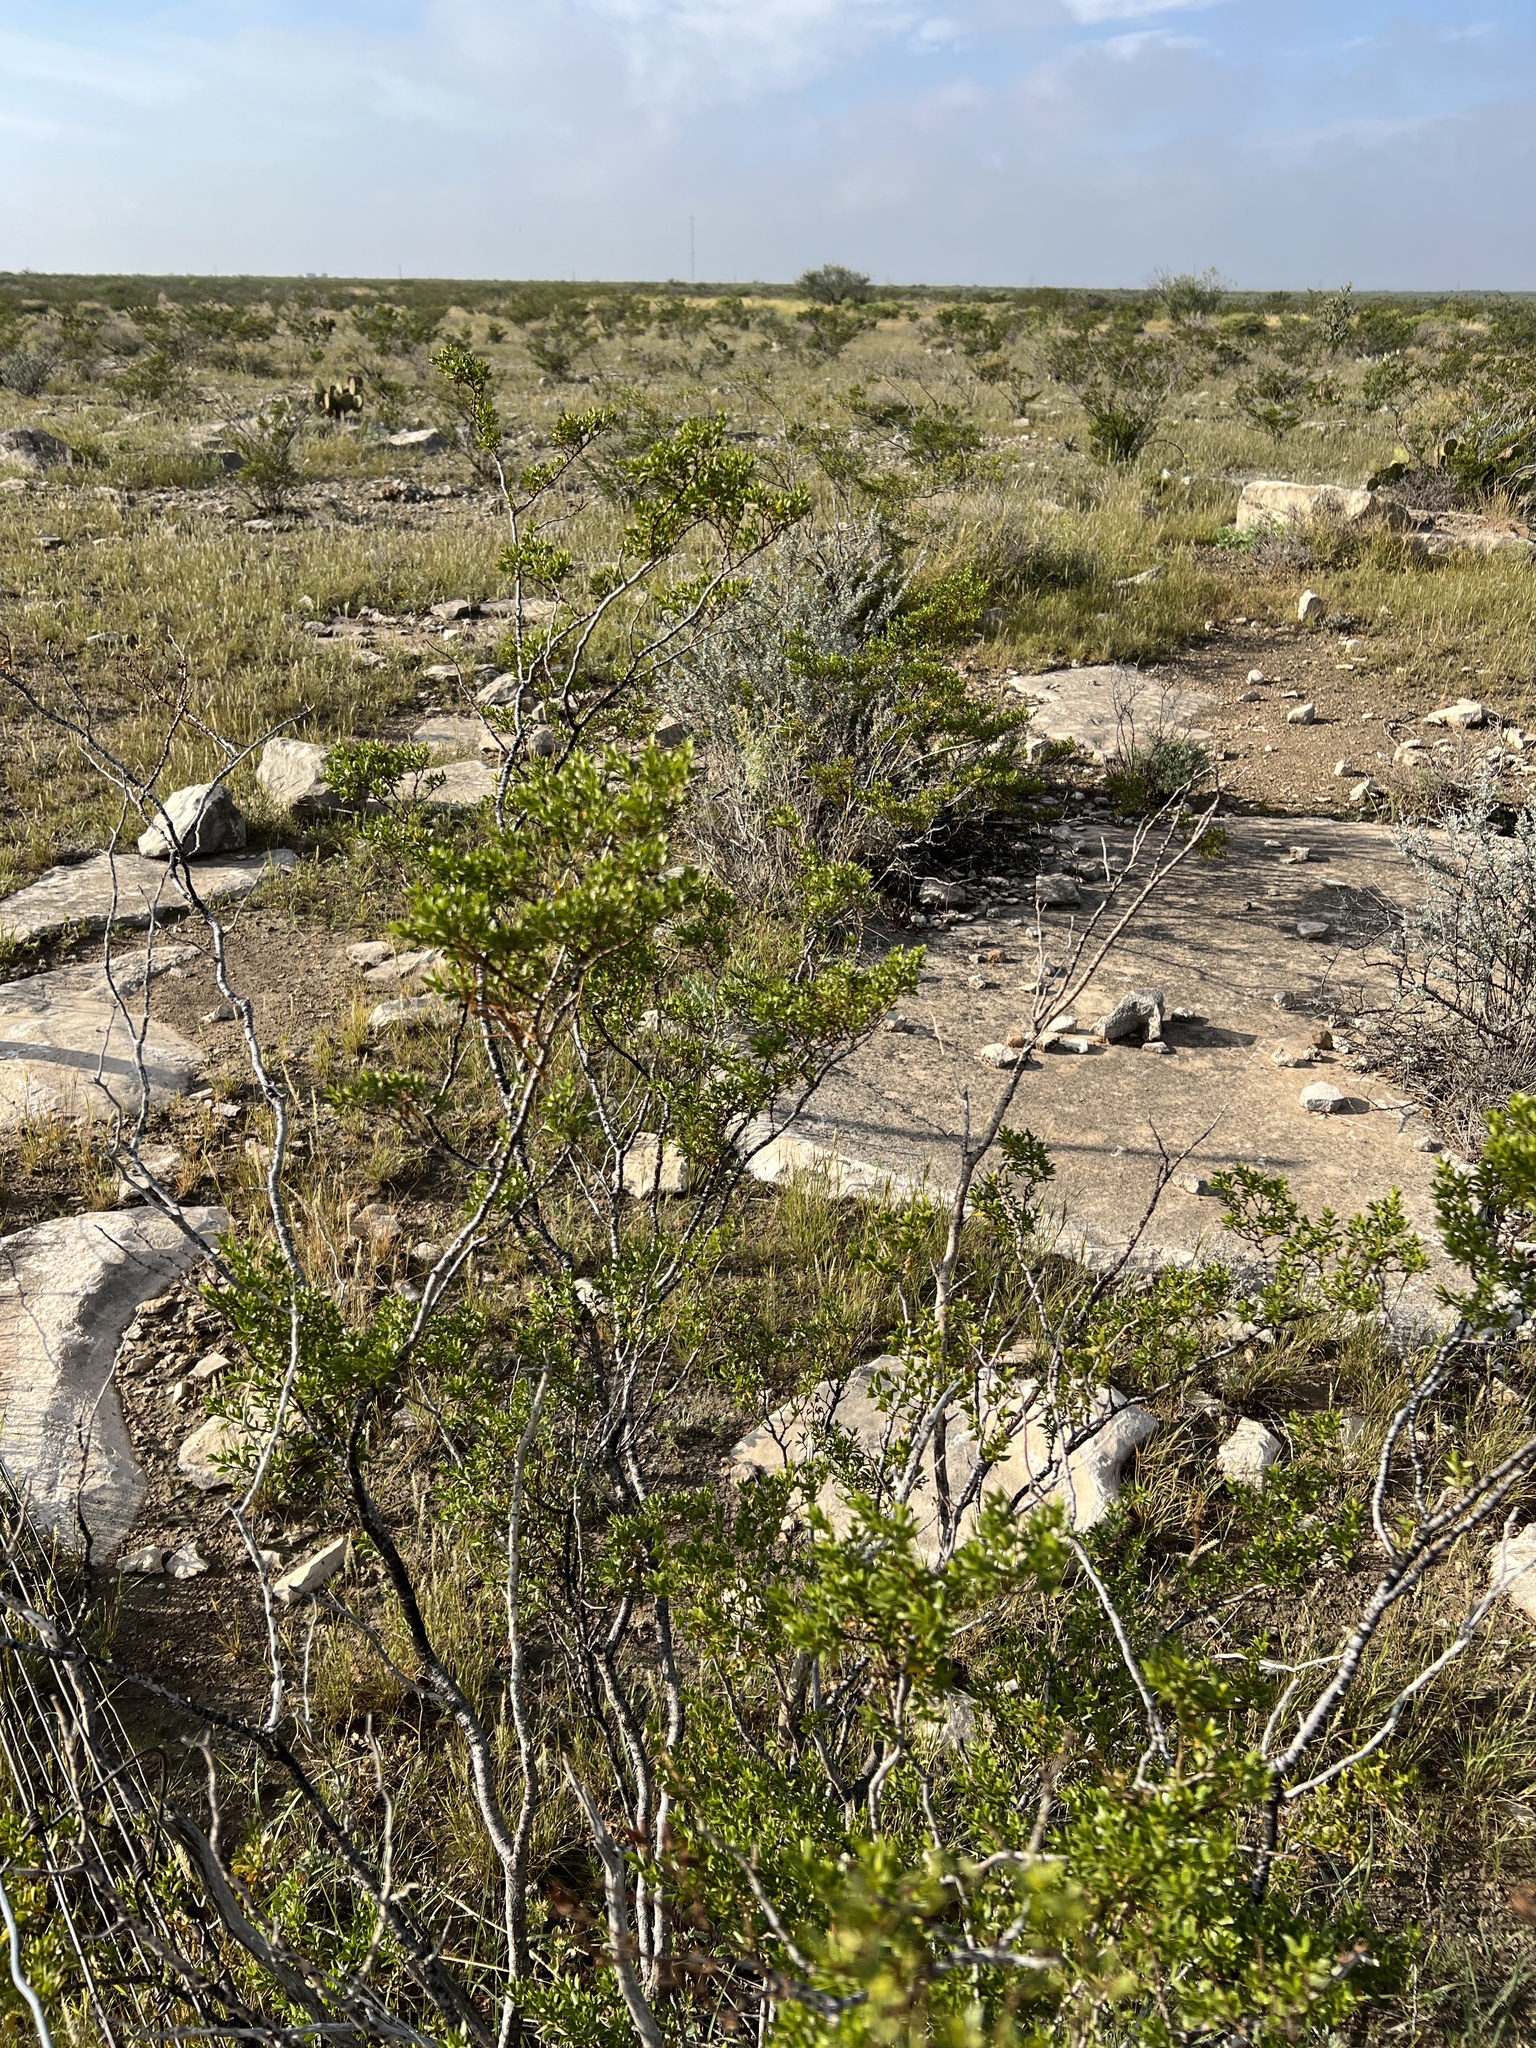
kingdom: Plantae
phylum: Tracheophyta
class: Magnoliopsida
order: Zygophyllales
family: Zygophyllaceae
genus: Larrea
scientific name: Larrea tridentata
